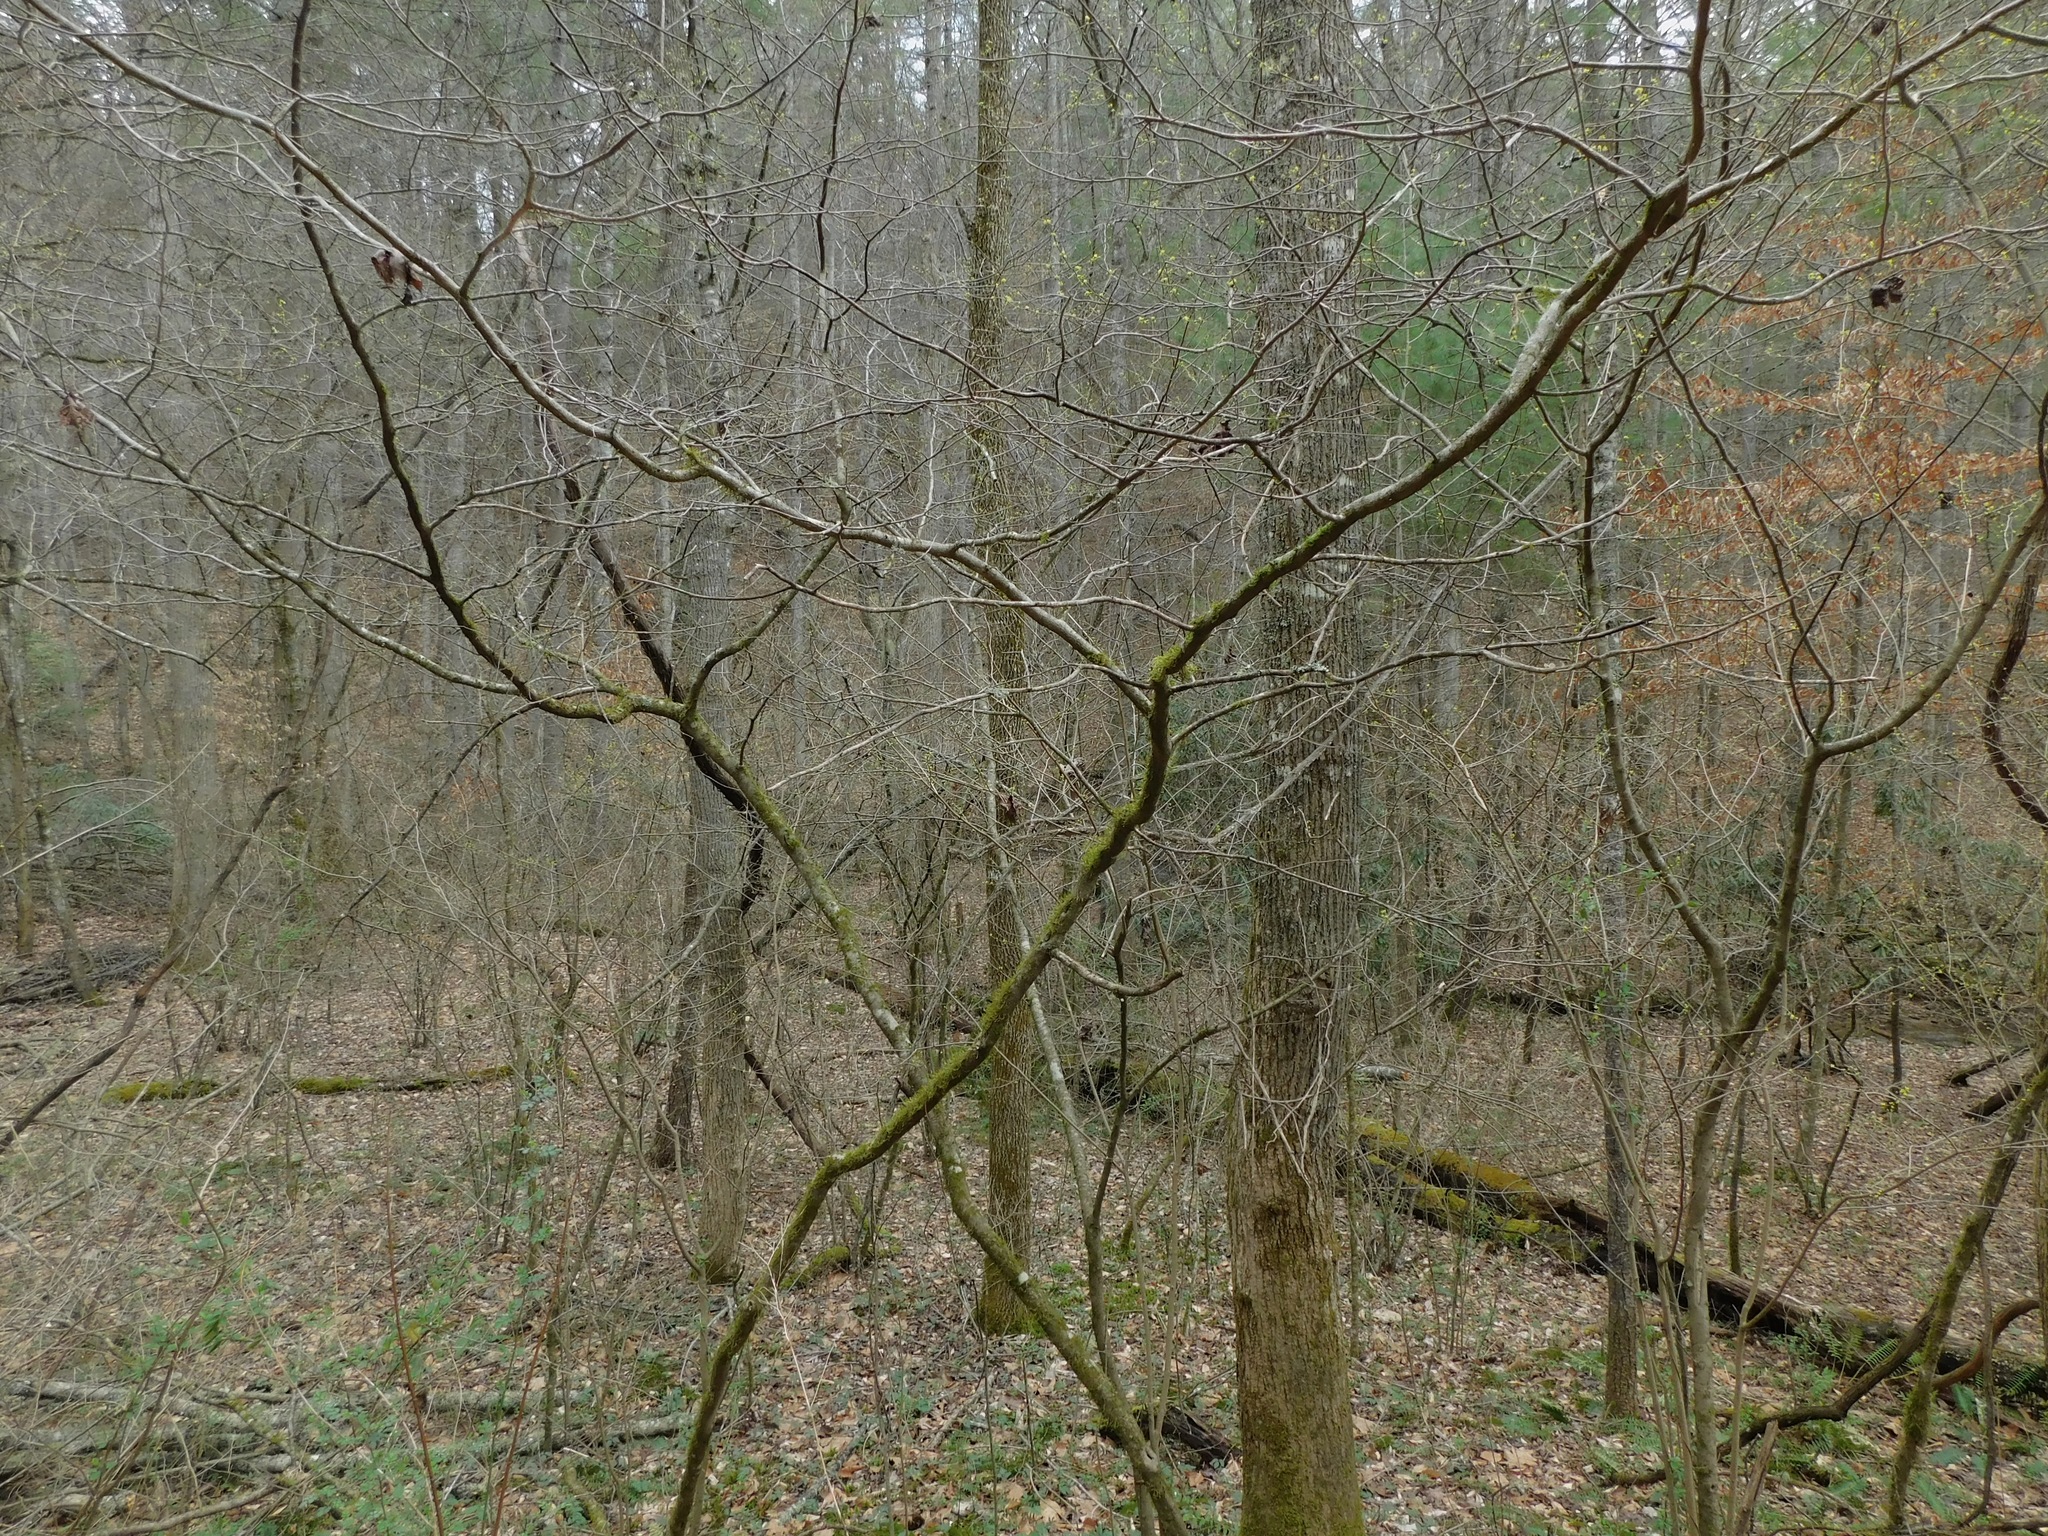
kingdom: Plantae
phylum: Tracheophyta
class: Magnoliopsida
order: Laurales
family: Lauraceae
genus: Lindera
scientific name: Lindera benzoin
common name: Spicebush
